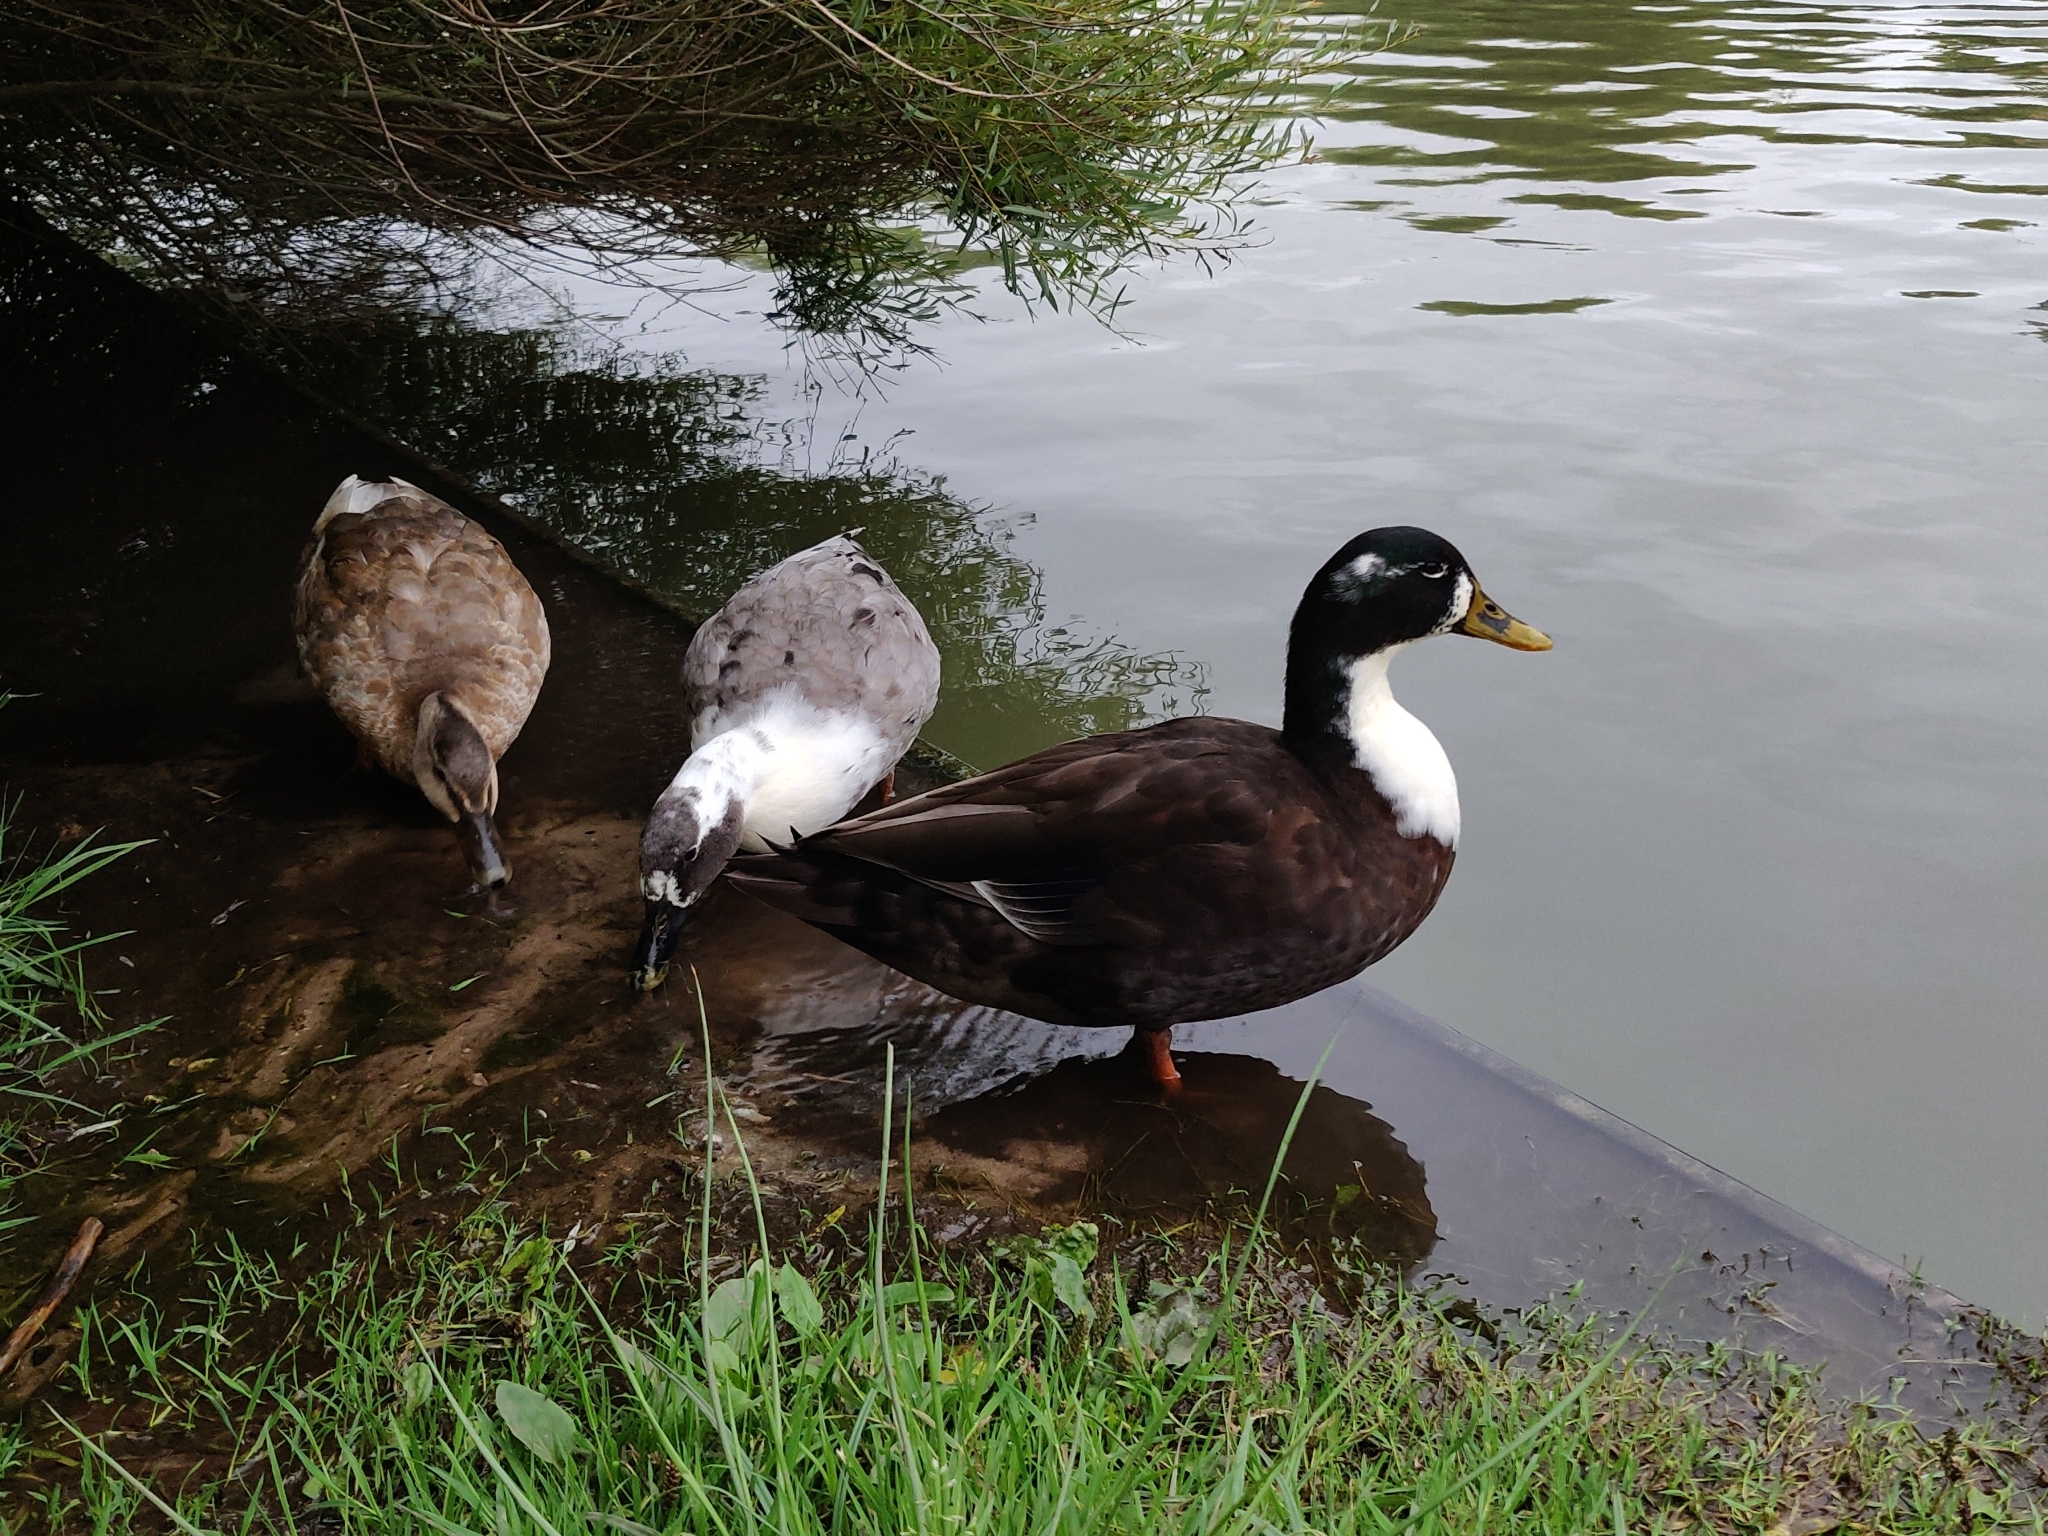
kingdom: Animalia
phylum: Chordata
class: Aves
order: Anseriformes
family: Anatidae
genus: Anas
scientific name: Anas platyrhynchos
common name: Mallard
